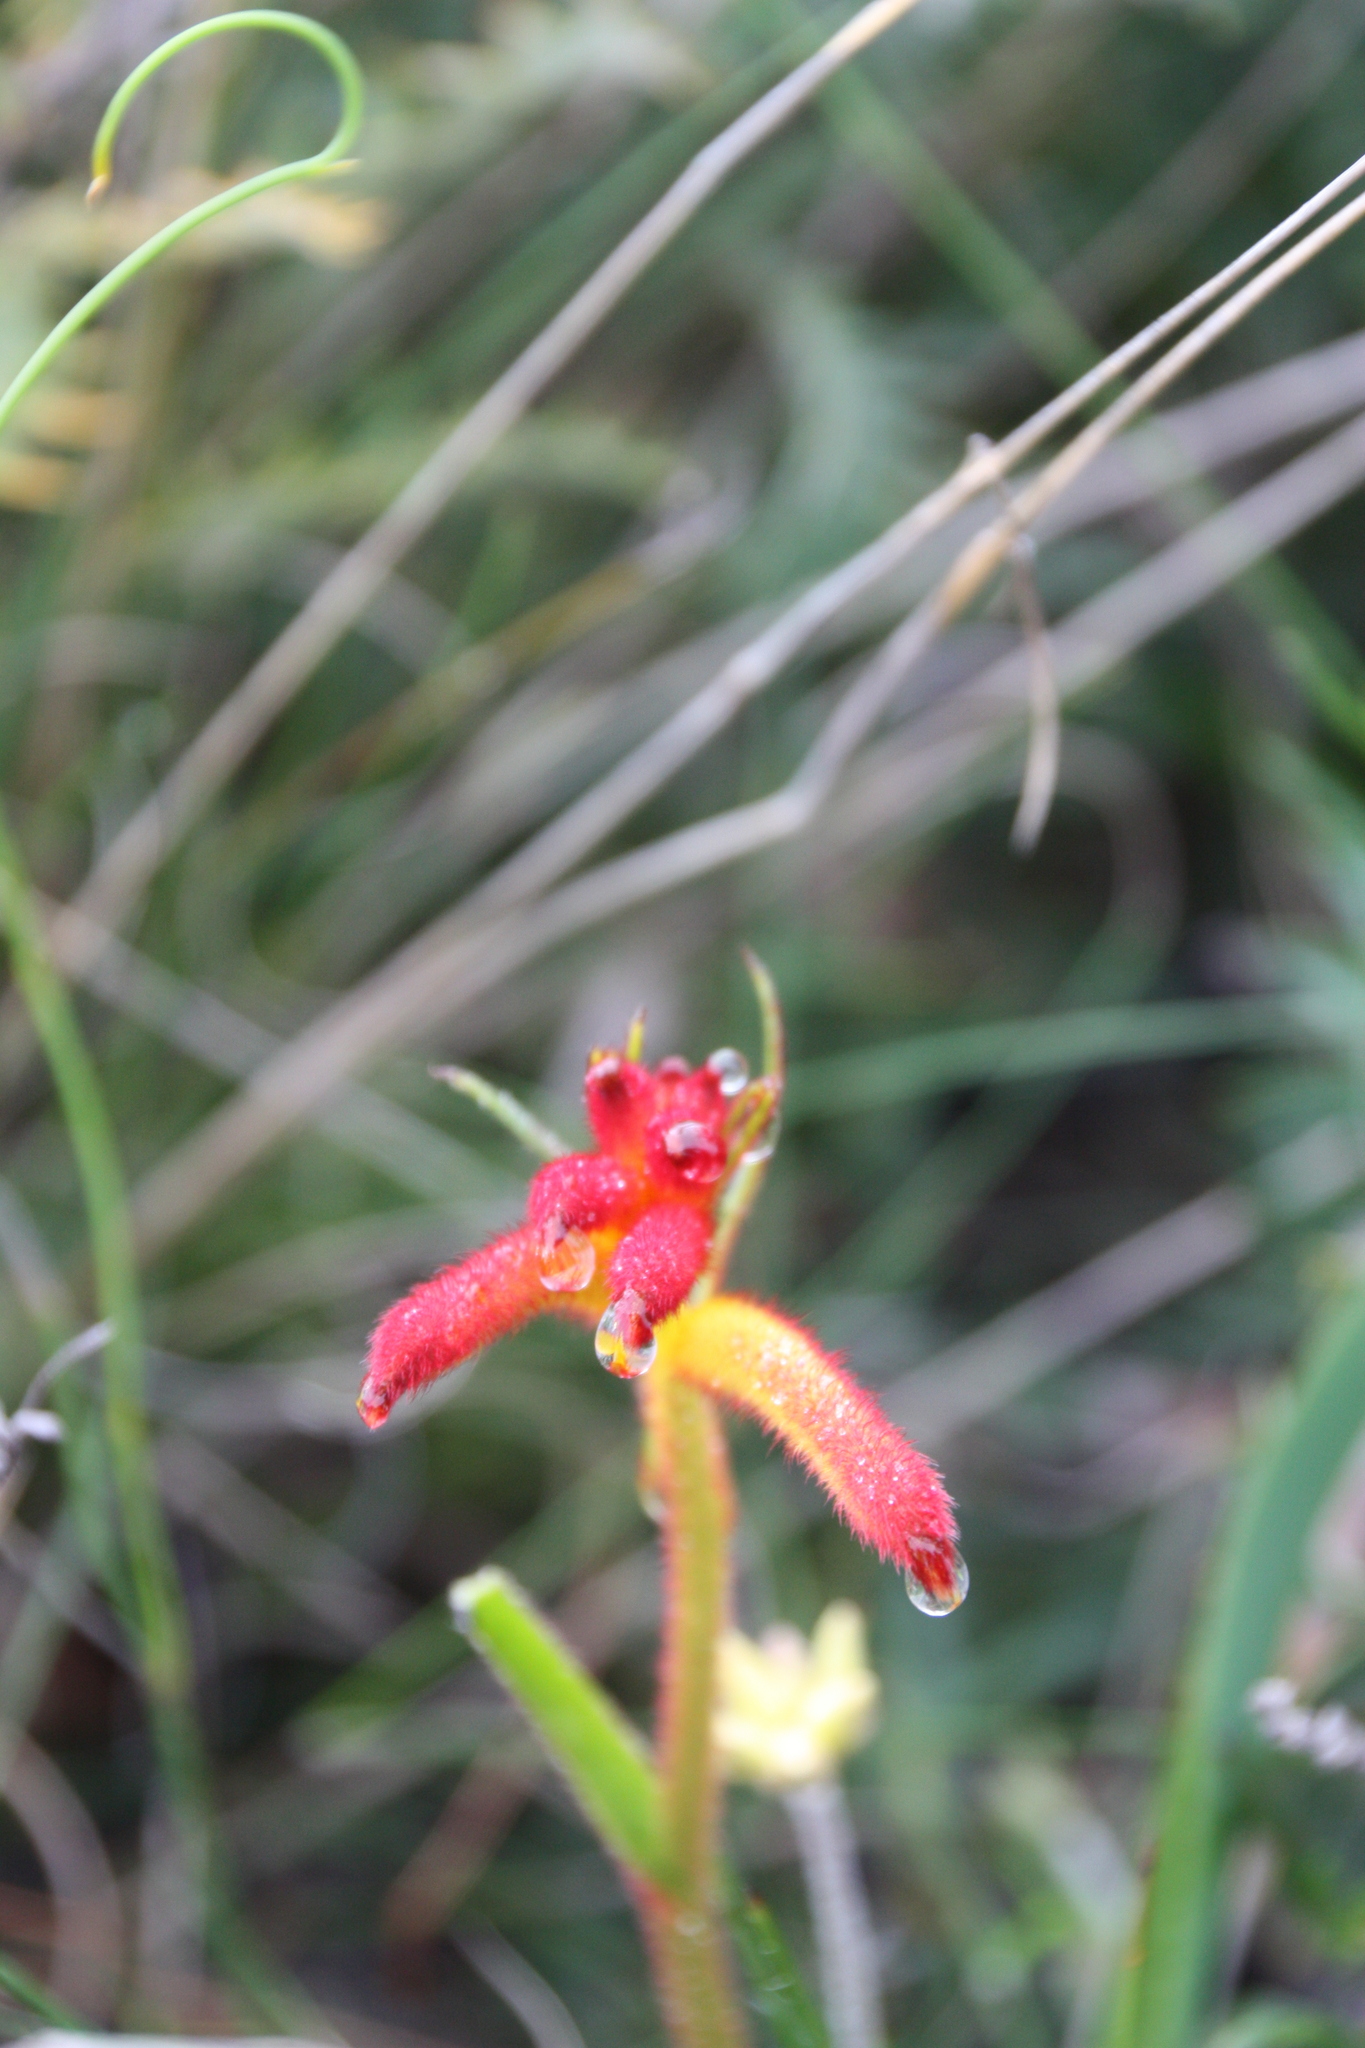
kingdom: Plantae
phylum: Tracheophyta
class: Liliopsida
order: Commelinales
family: Haemodoraceae
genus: Anigozanthos
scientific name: Anigozanthos humilis
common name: Cat's-paw
